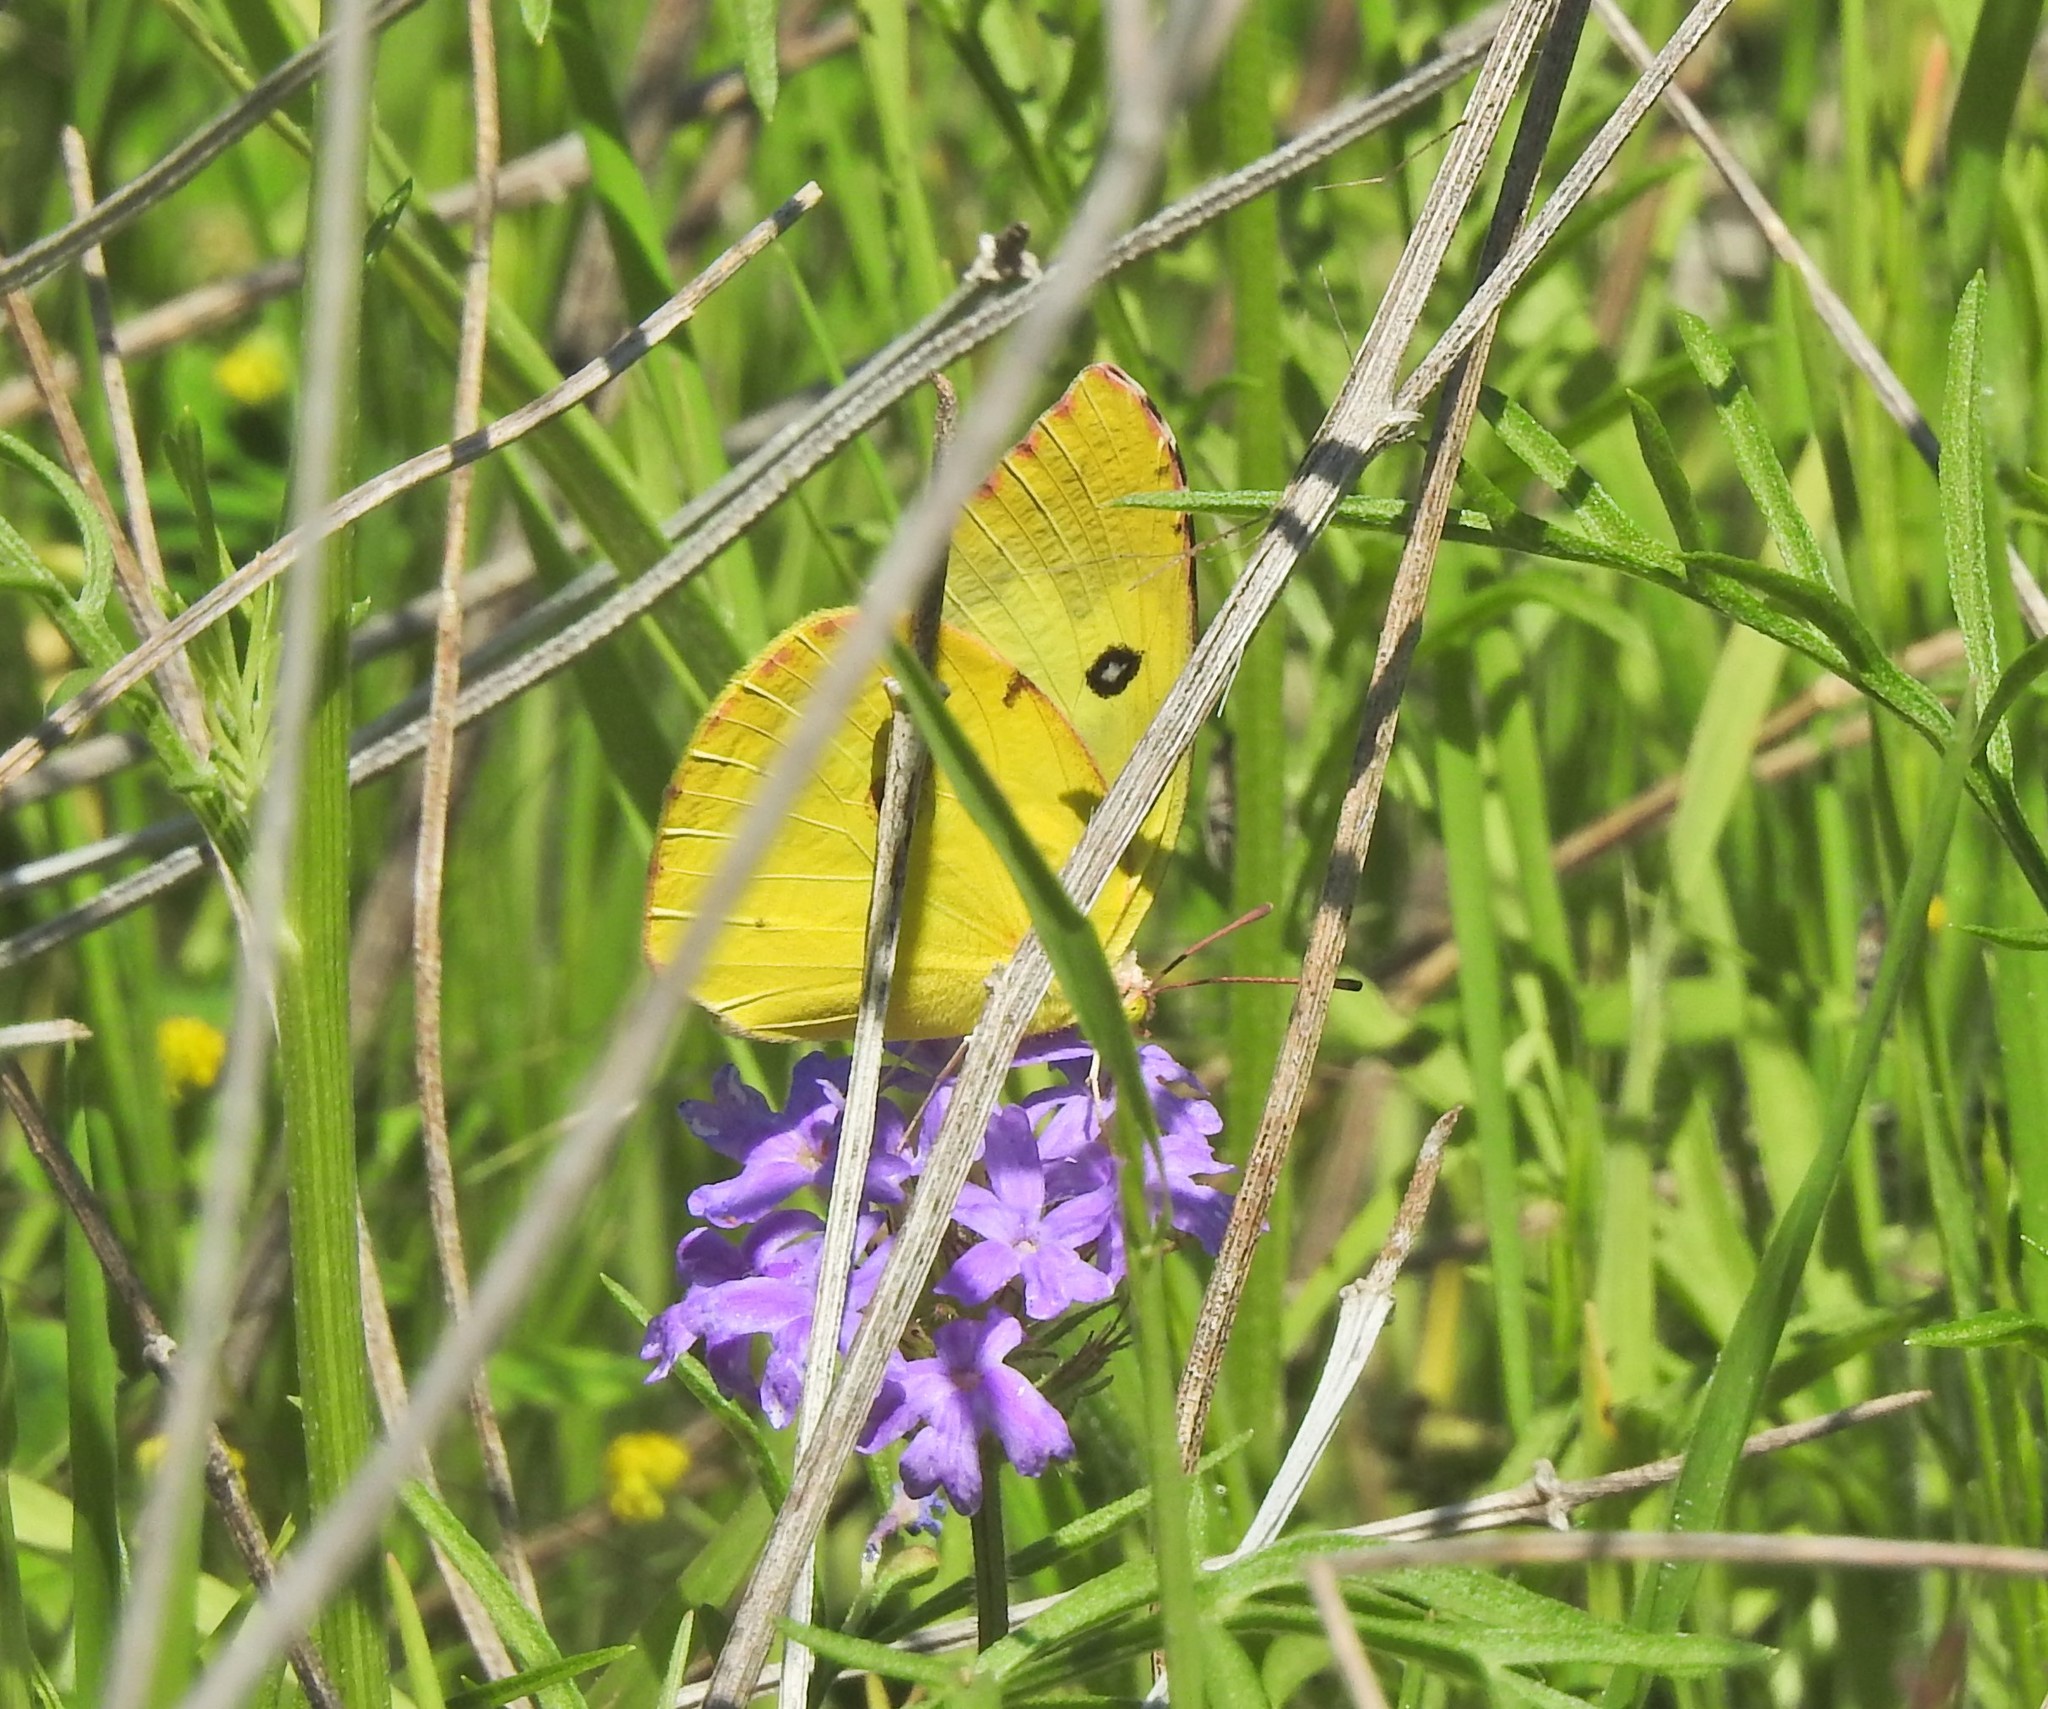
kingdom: Animalia
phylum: Arthropoda
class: Insecta
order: Lepidoptera
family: Pieridae
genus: Zerene
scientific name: Zerene cesonia
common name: Southern dogface
